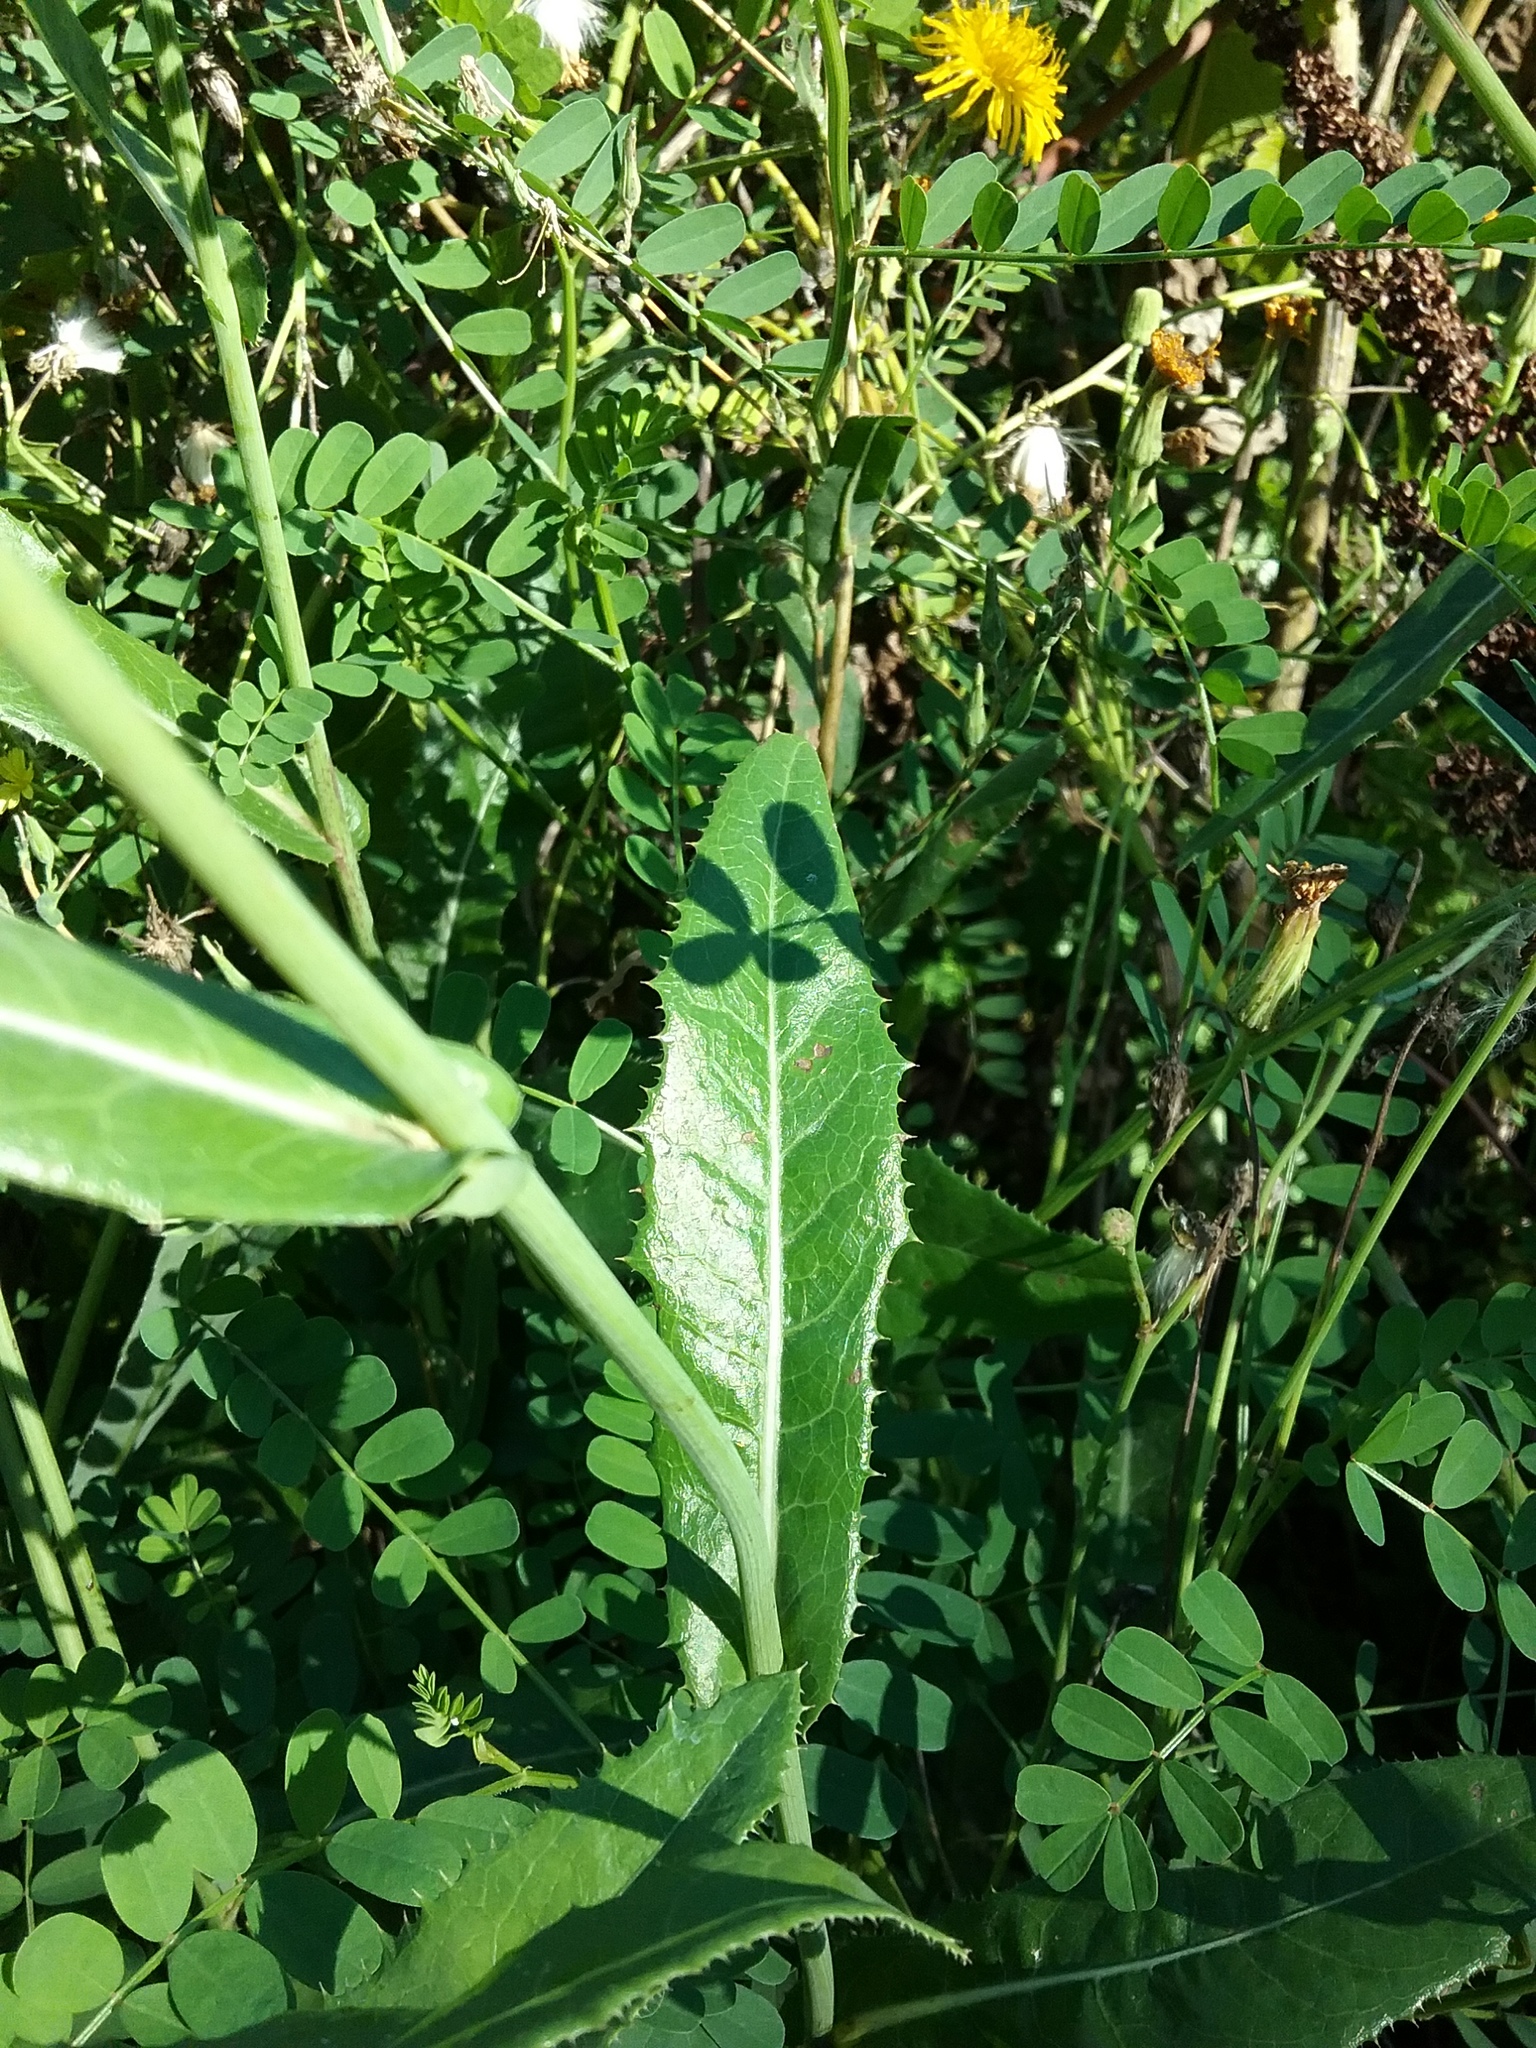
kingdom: Plantae
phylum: Tracheophyta
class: Magnoliopsida
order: Asterales
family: Asteraceae
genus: Sonchus
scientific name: Sonchus arvensis
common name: Perennial sow-thistle
